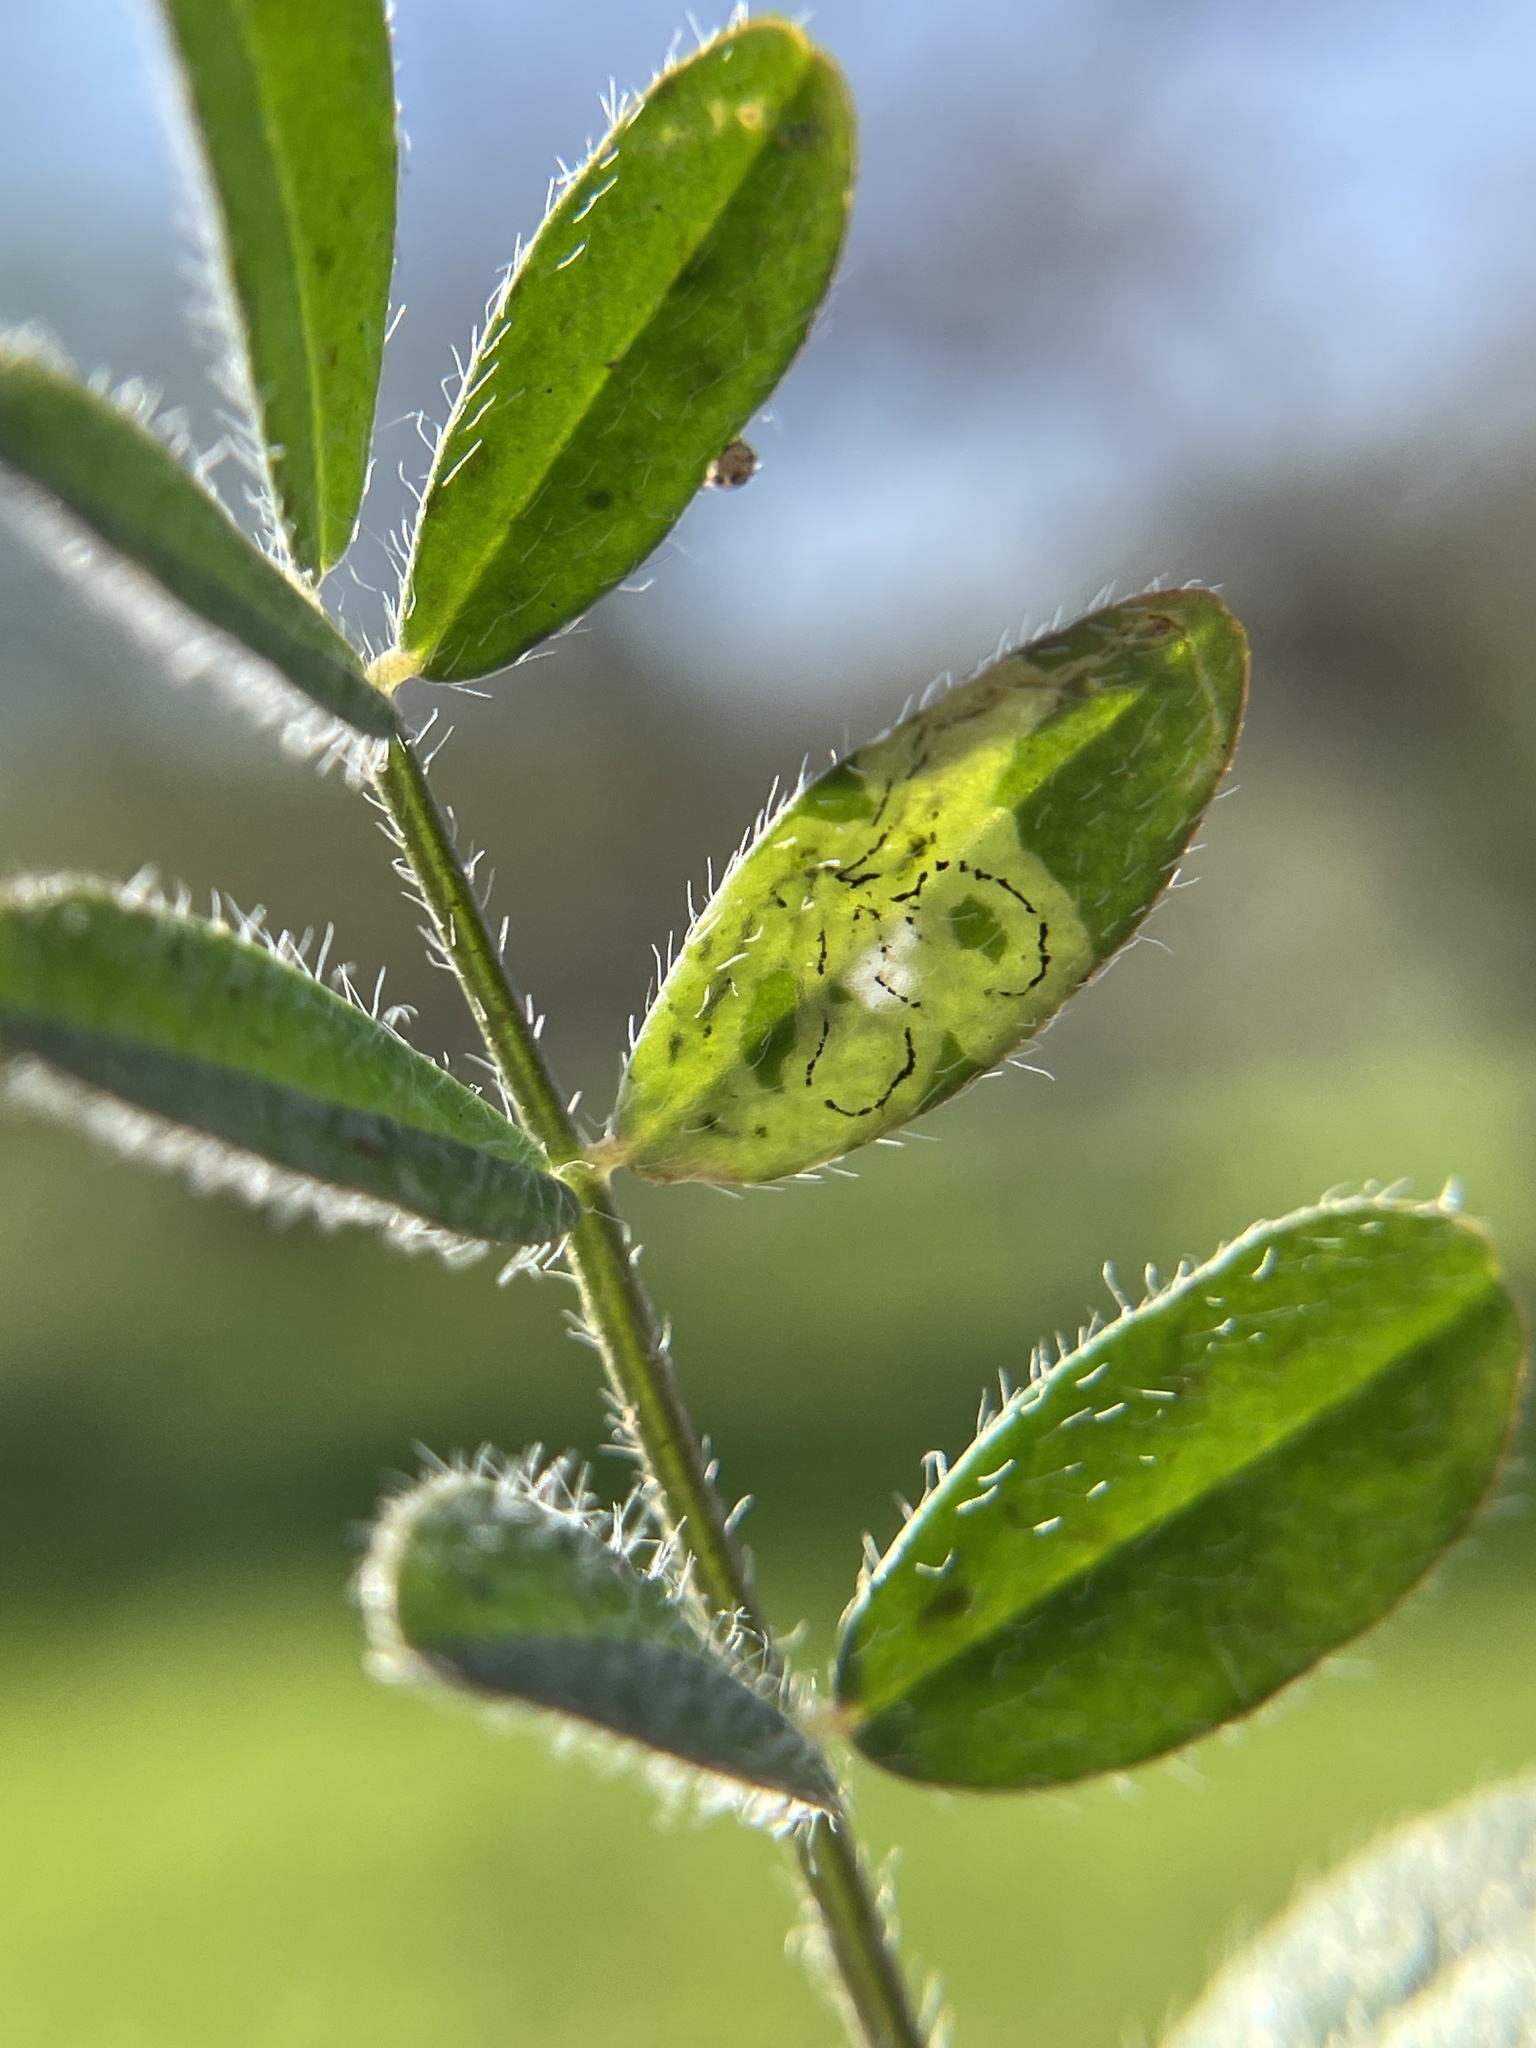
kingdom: Plantae
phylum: Tracheophyta
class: Magnoliopsida
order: Fabales
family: Fabaceae
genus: Astragalus
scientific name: Astragalus nuttallianus
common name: Smallflowered milkvetch
